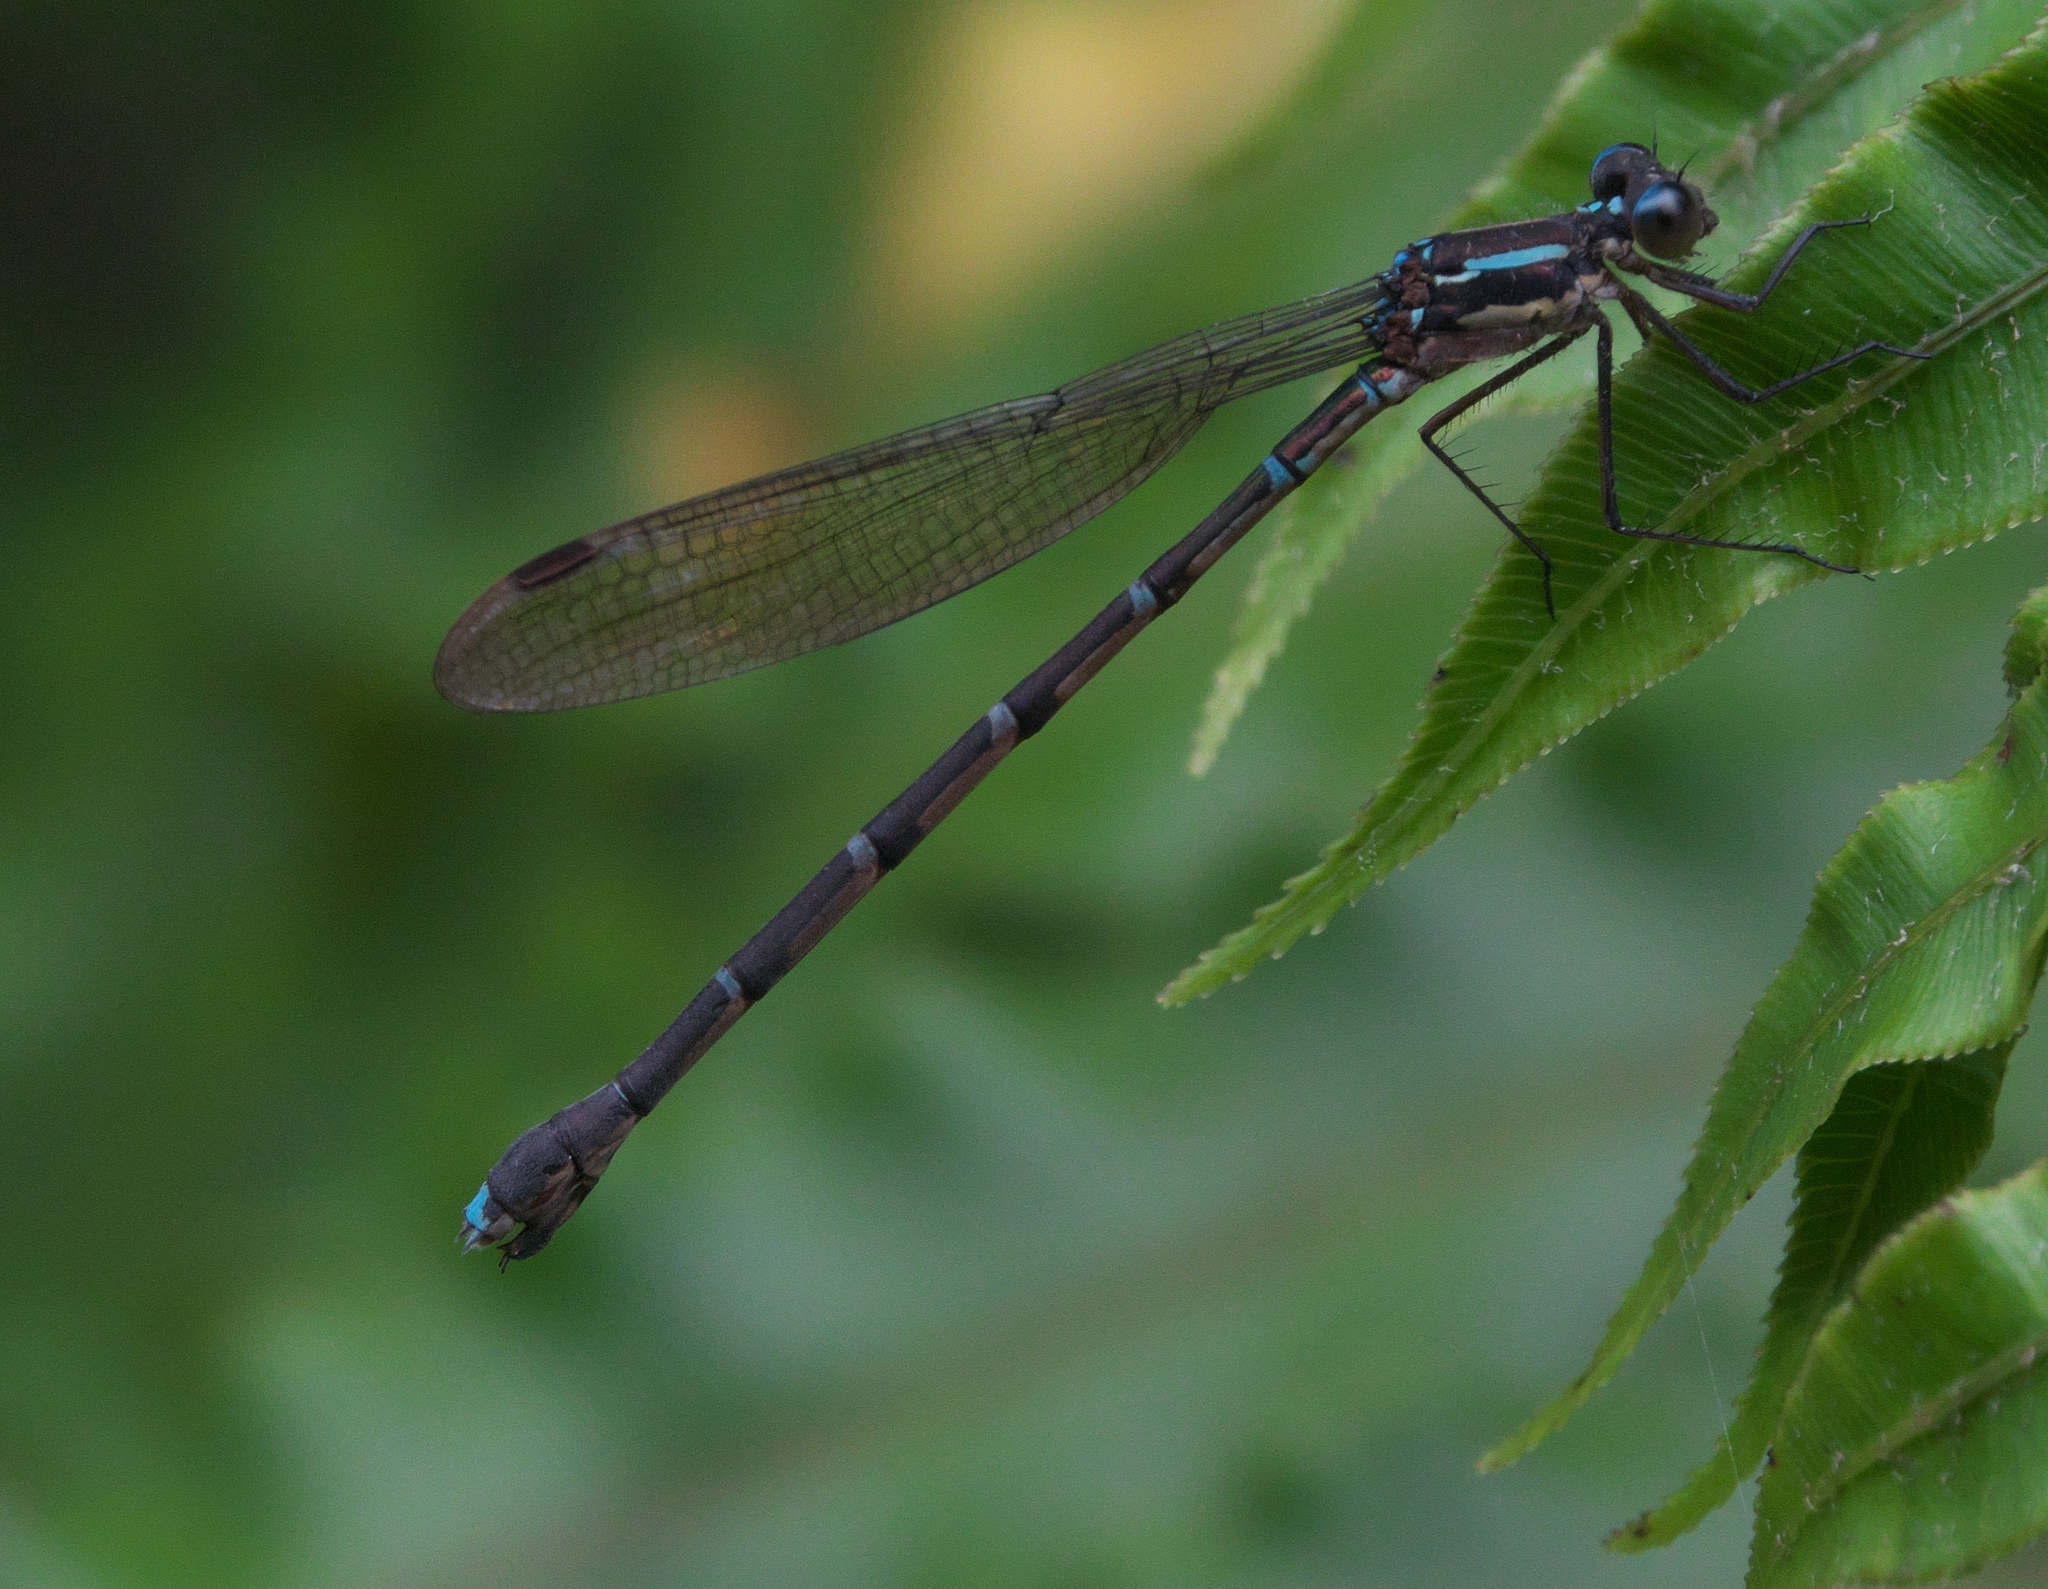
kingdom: Animalia
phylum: Arthropoda
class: Insecta
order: Odonata
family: Lestidae
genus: Austrolestes
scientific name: Austrolestes colensonis
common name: Blue damselfly
